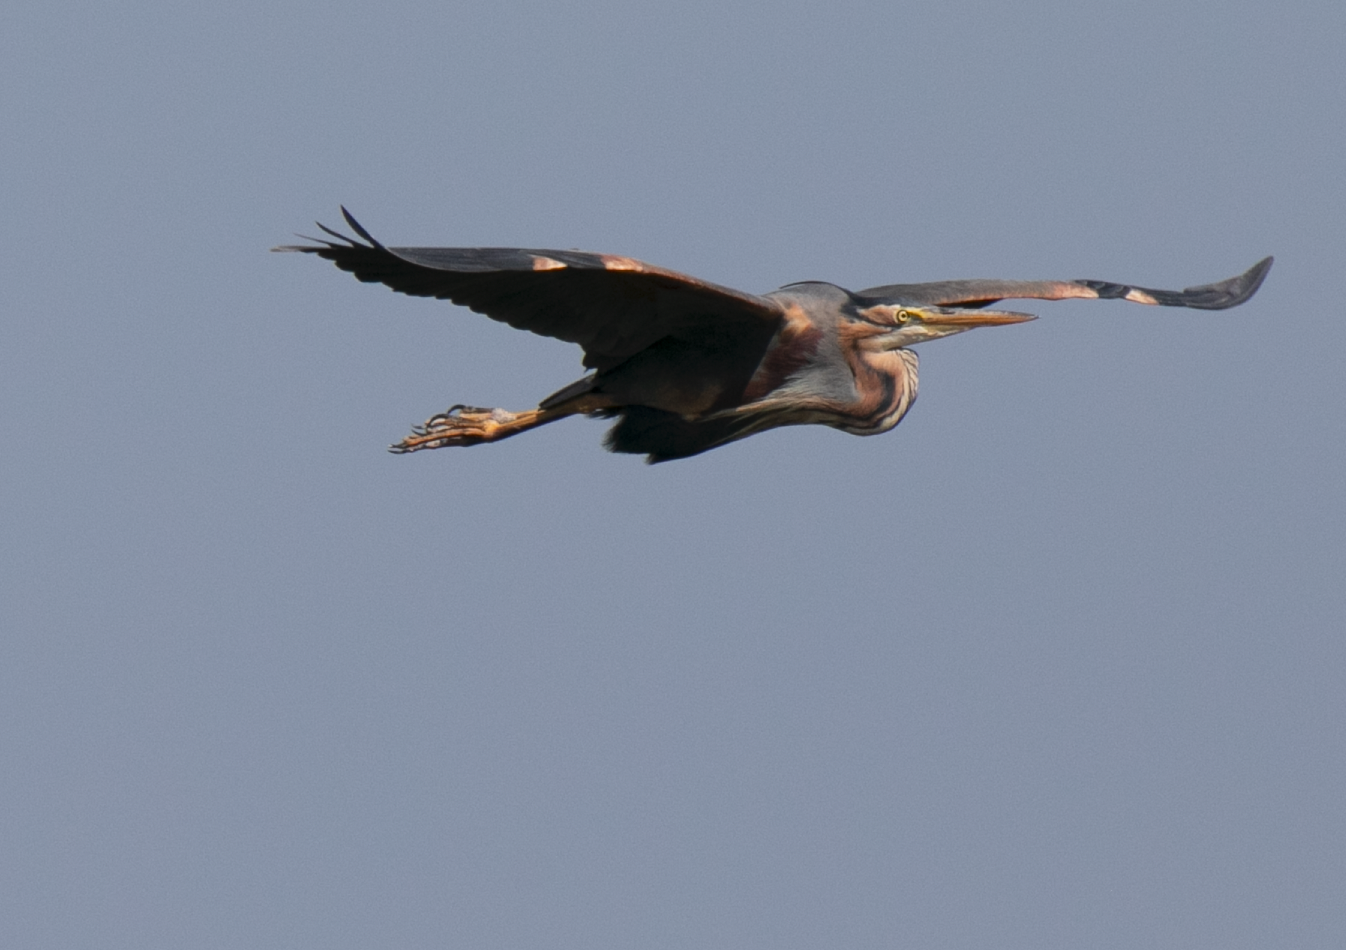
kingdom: Animalia
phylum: Chordata
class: Aves
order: Pelecaniformes
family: Ardeidae
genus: Ardea
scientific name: Ardea purpurea
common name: Purple heron
